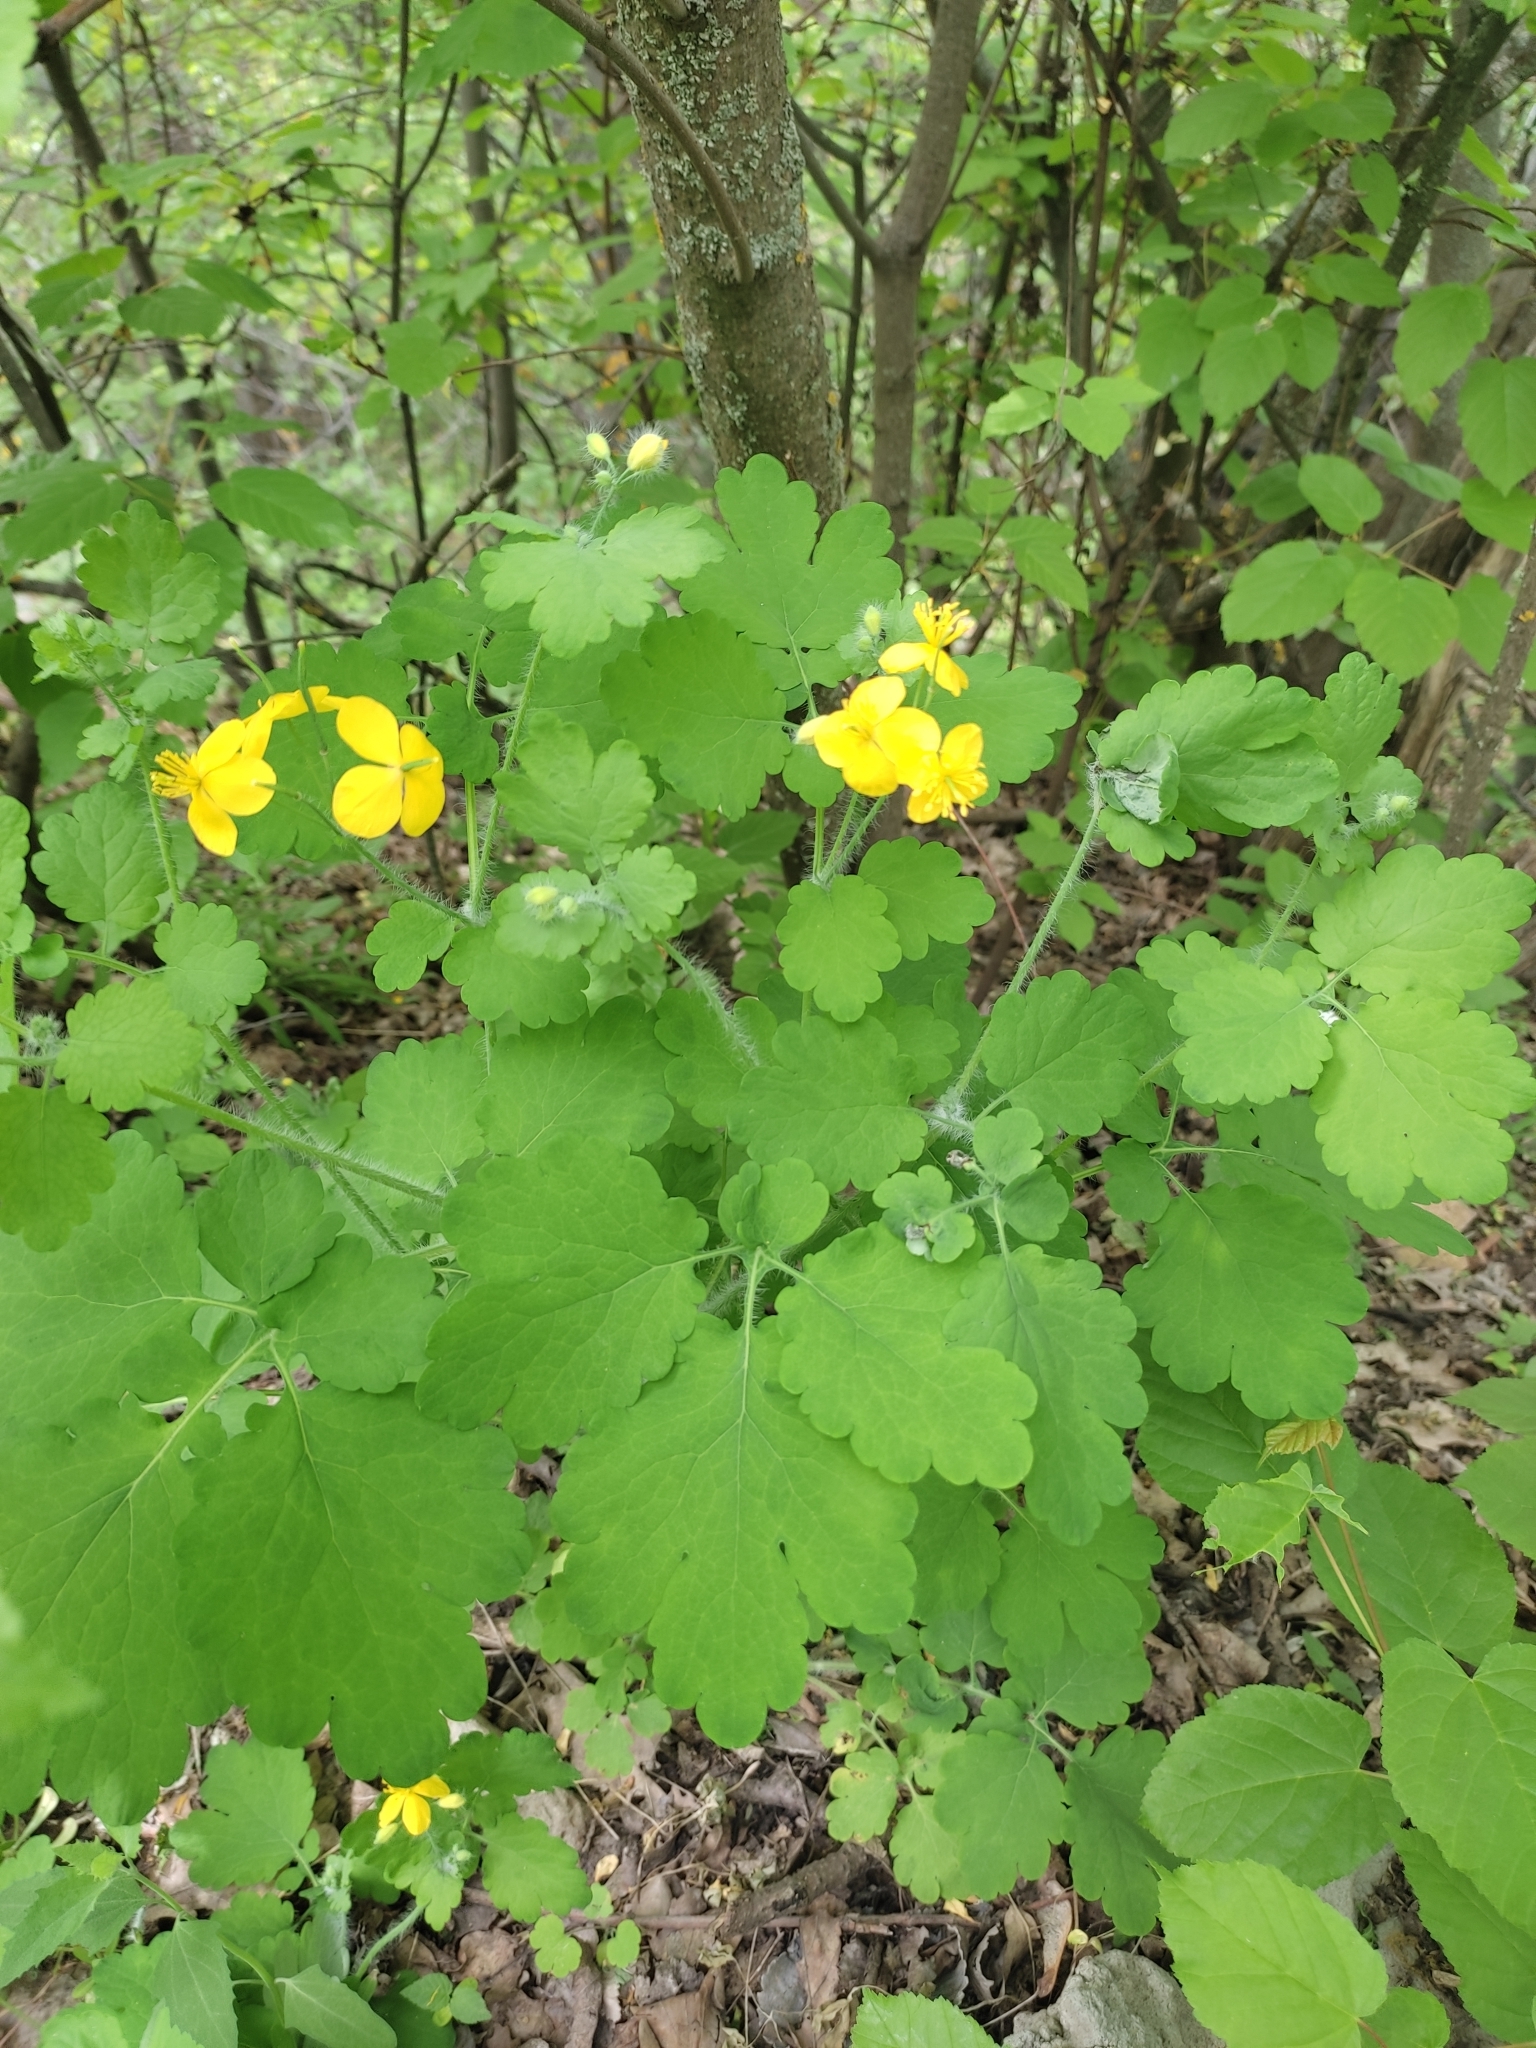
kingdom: Plantae
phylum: Tracheophyta
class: Magnoliopsida
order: Ranunculales
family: Papaveraceae
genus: Chelidonium
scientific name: Chelidonium majus
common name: Greater celandine
